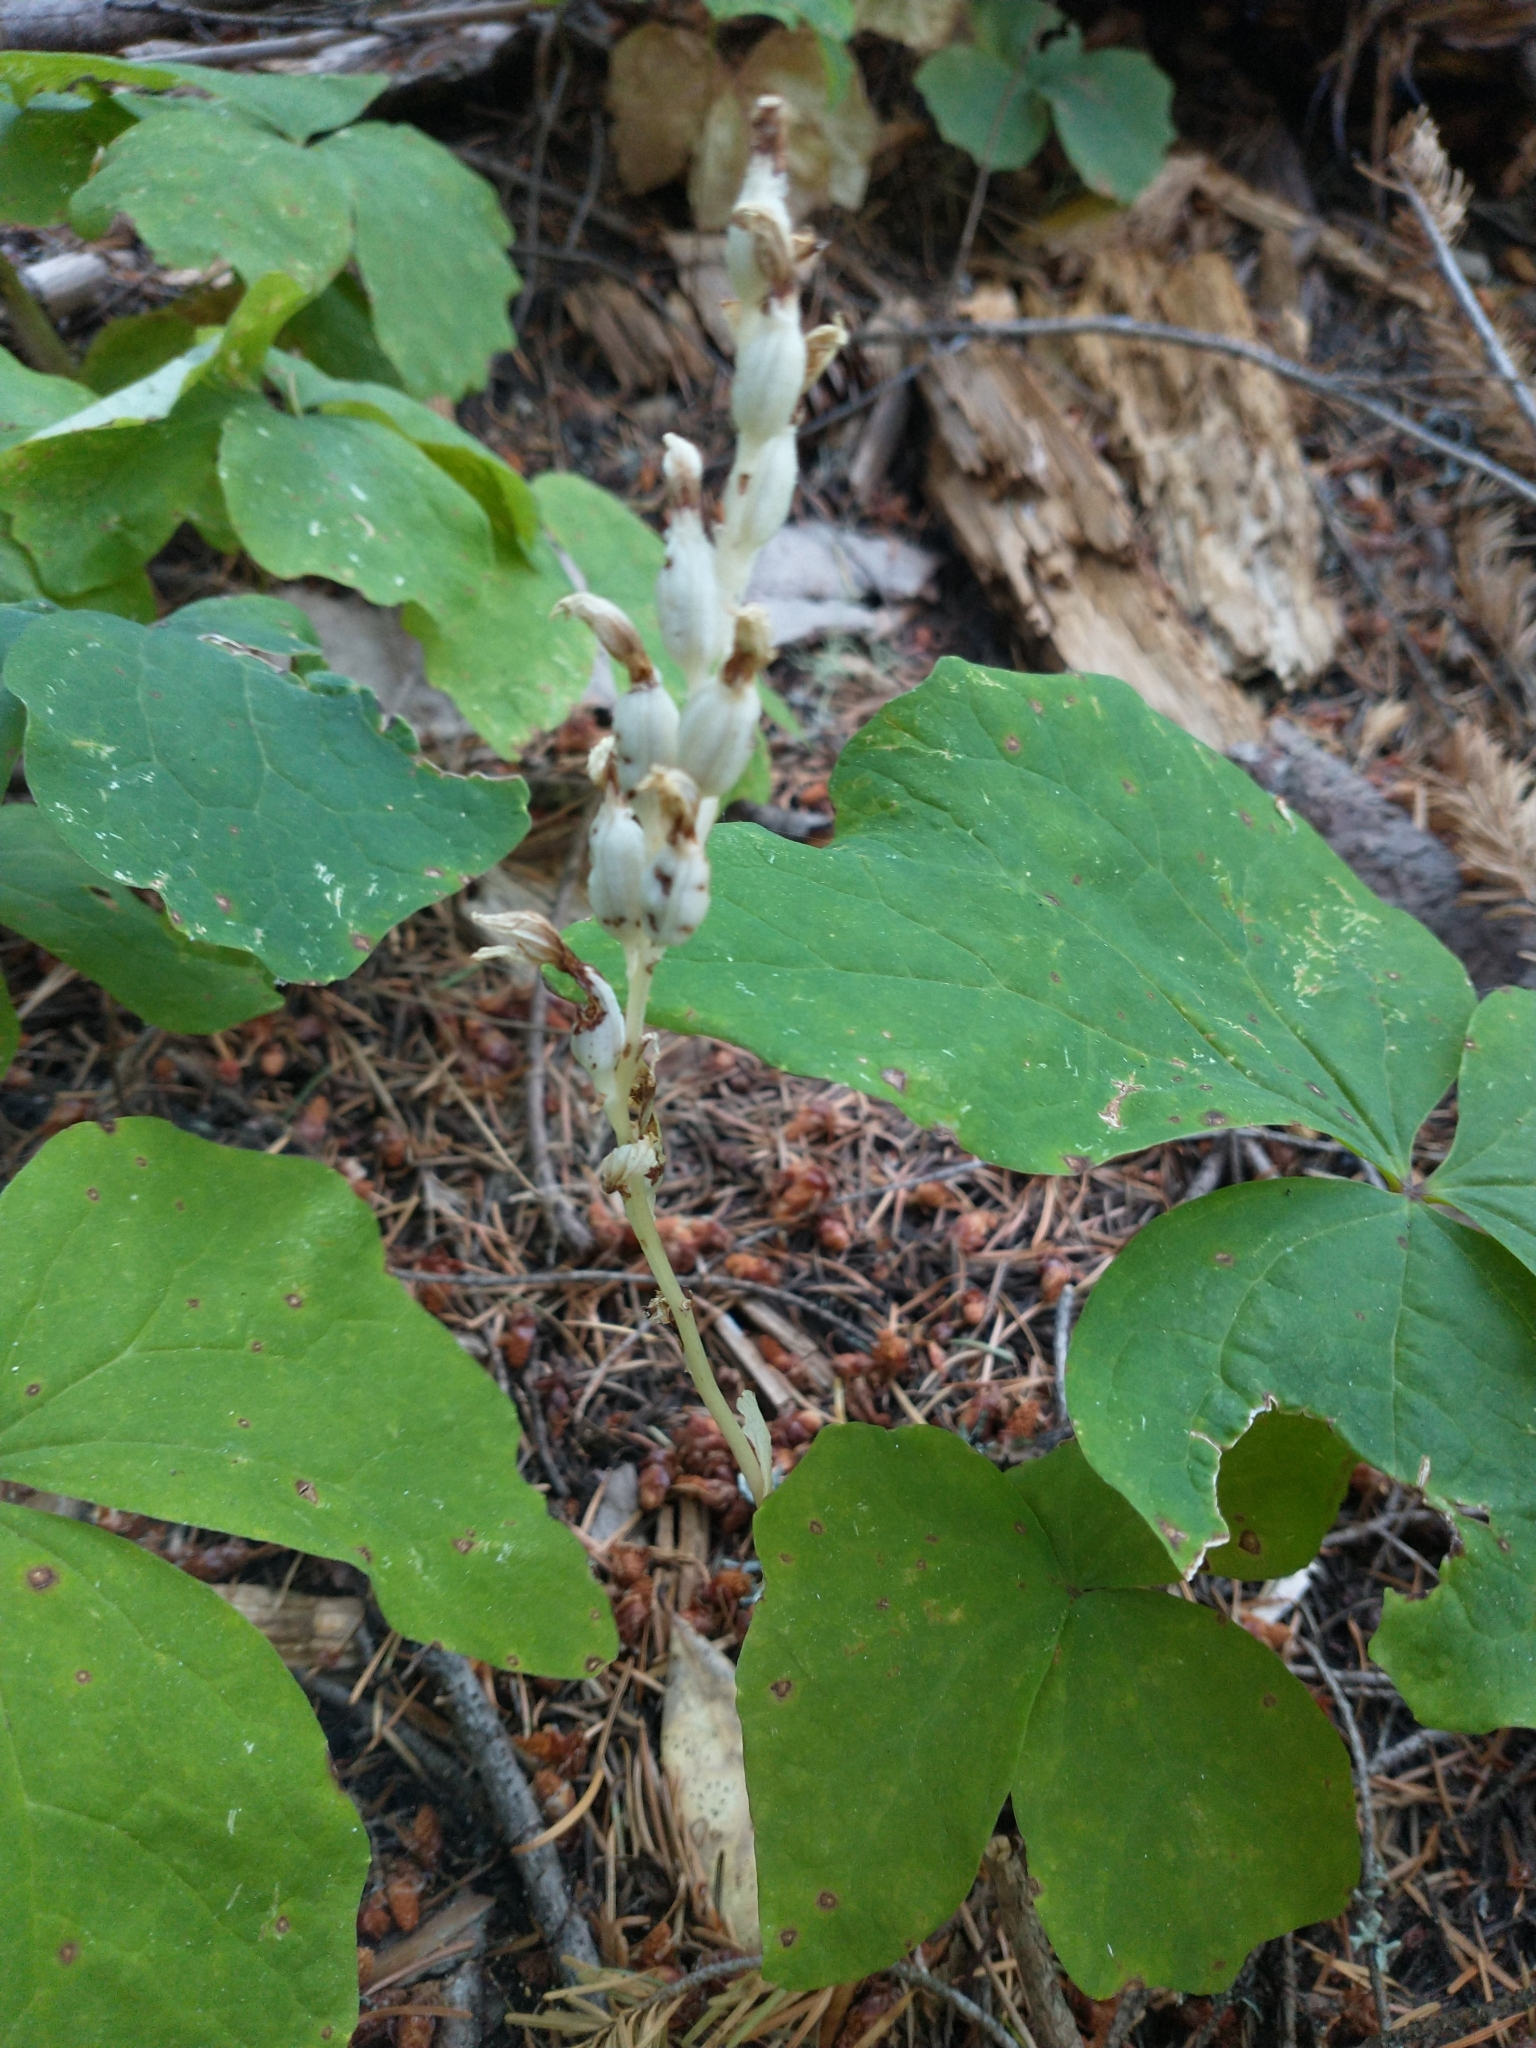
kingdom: Plantae
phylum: Tracheophyta
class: Liliopsida
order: Asparagales
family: Orchidaceae
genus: Cephalanthera
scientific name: Cephalanthera austiniae
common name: Phantom orchid
